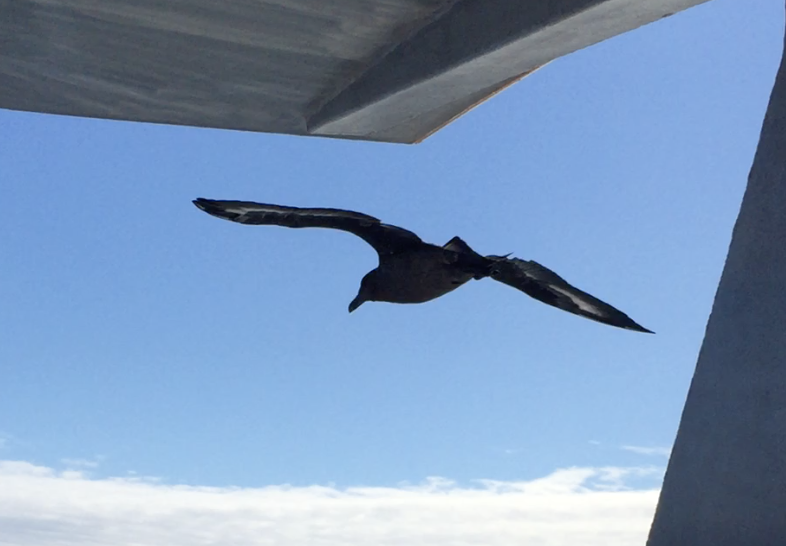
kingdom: Animalia
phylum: Chordata
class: Aves
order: Charadriiformes
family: Stercorariidae
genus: Stercorarius
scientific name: Stercorarius antarcticus
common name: Brown skua
